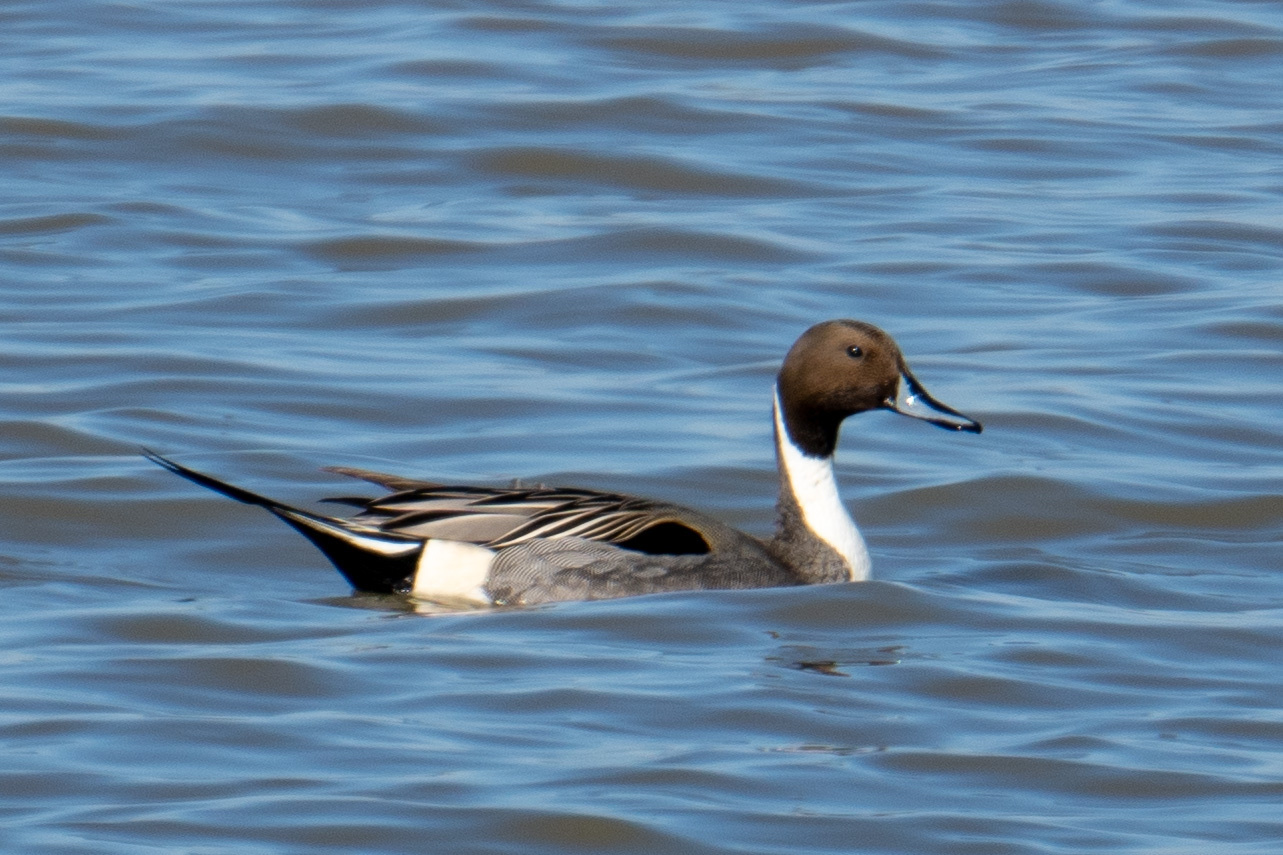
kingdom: Animalia
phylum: Chordata
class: Aves
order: Anseriformes
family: Anatidae
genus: Anas
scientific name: Anas acuta
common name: Northern pintail
